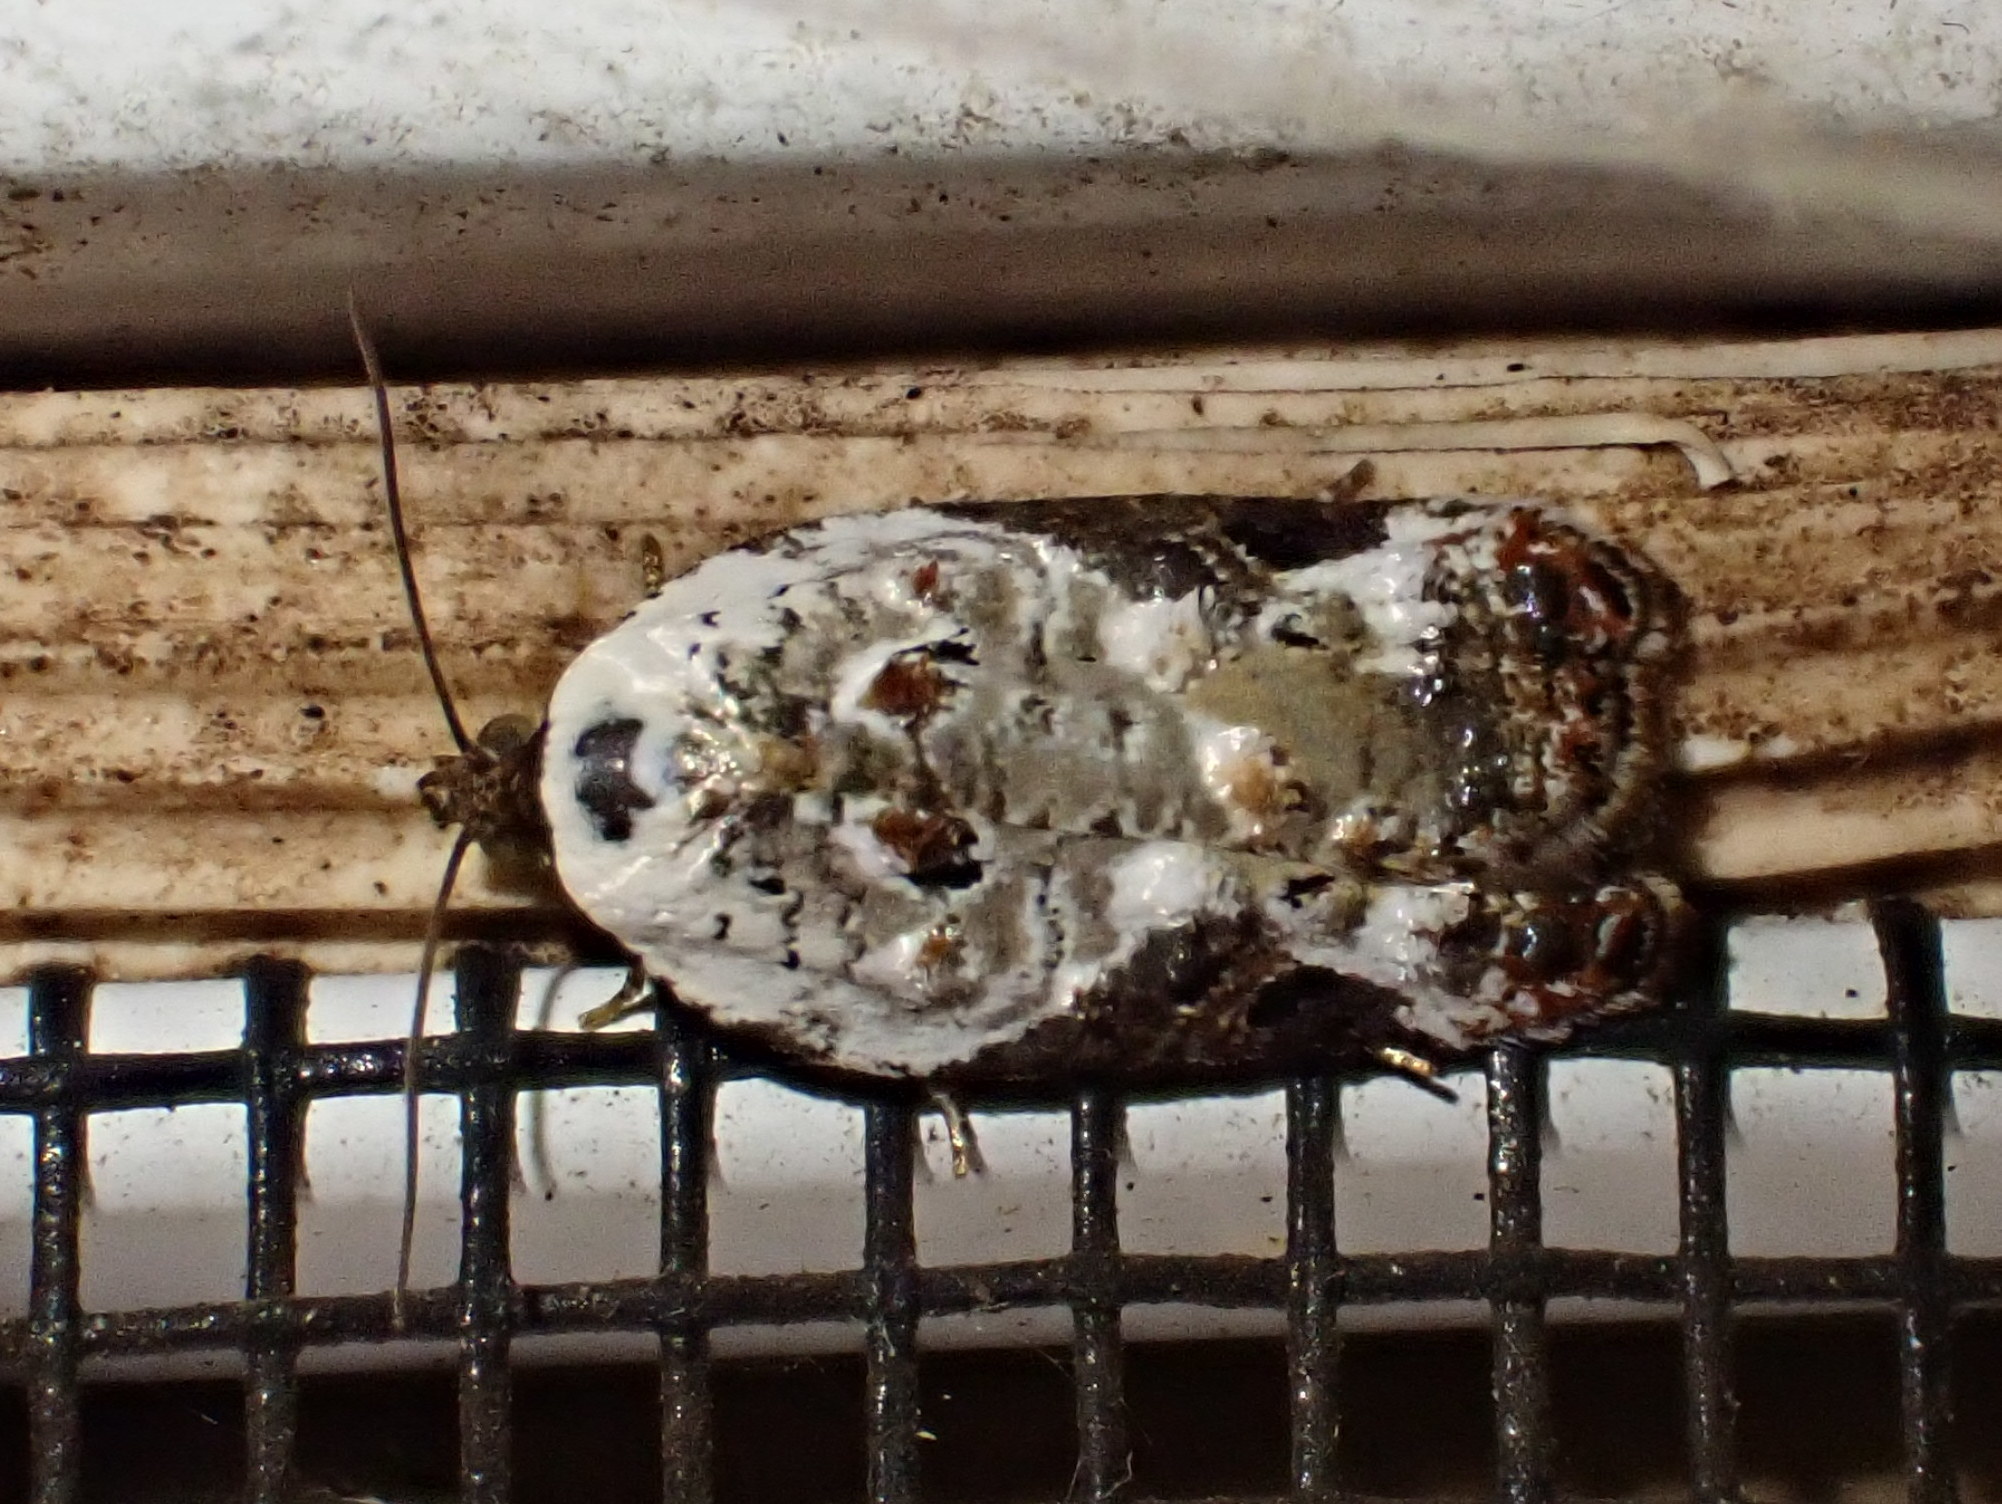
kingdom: Animalia
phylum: Arthropoda
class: Insecta
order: Lepidoptera
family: Tortricidae
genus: Acleris
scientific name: Acleris nivisellana
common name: Snowy-shouldered acleris moth
